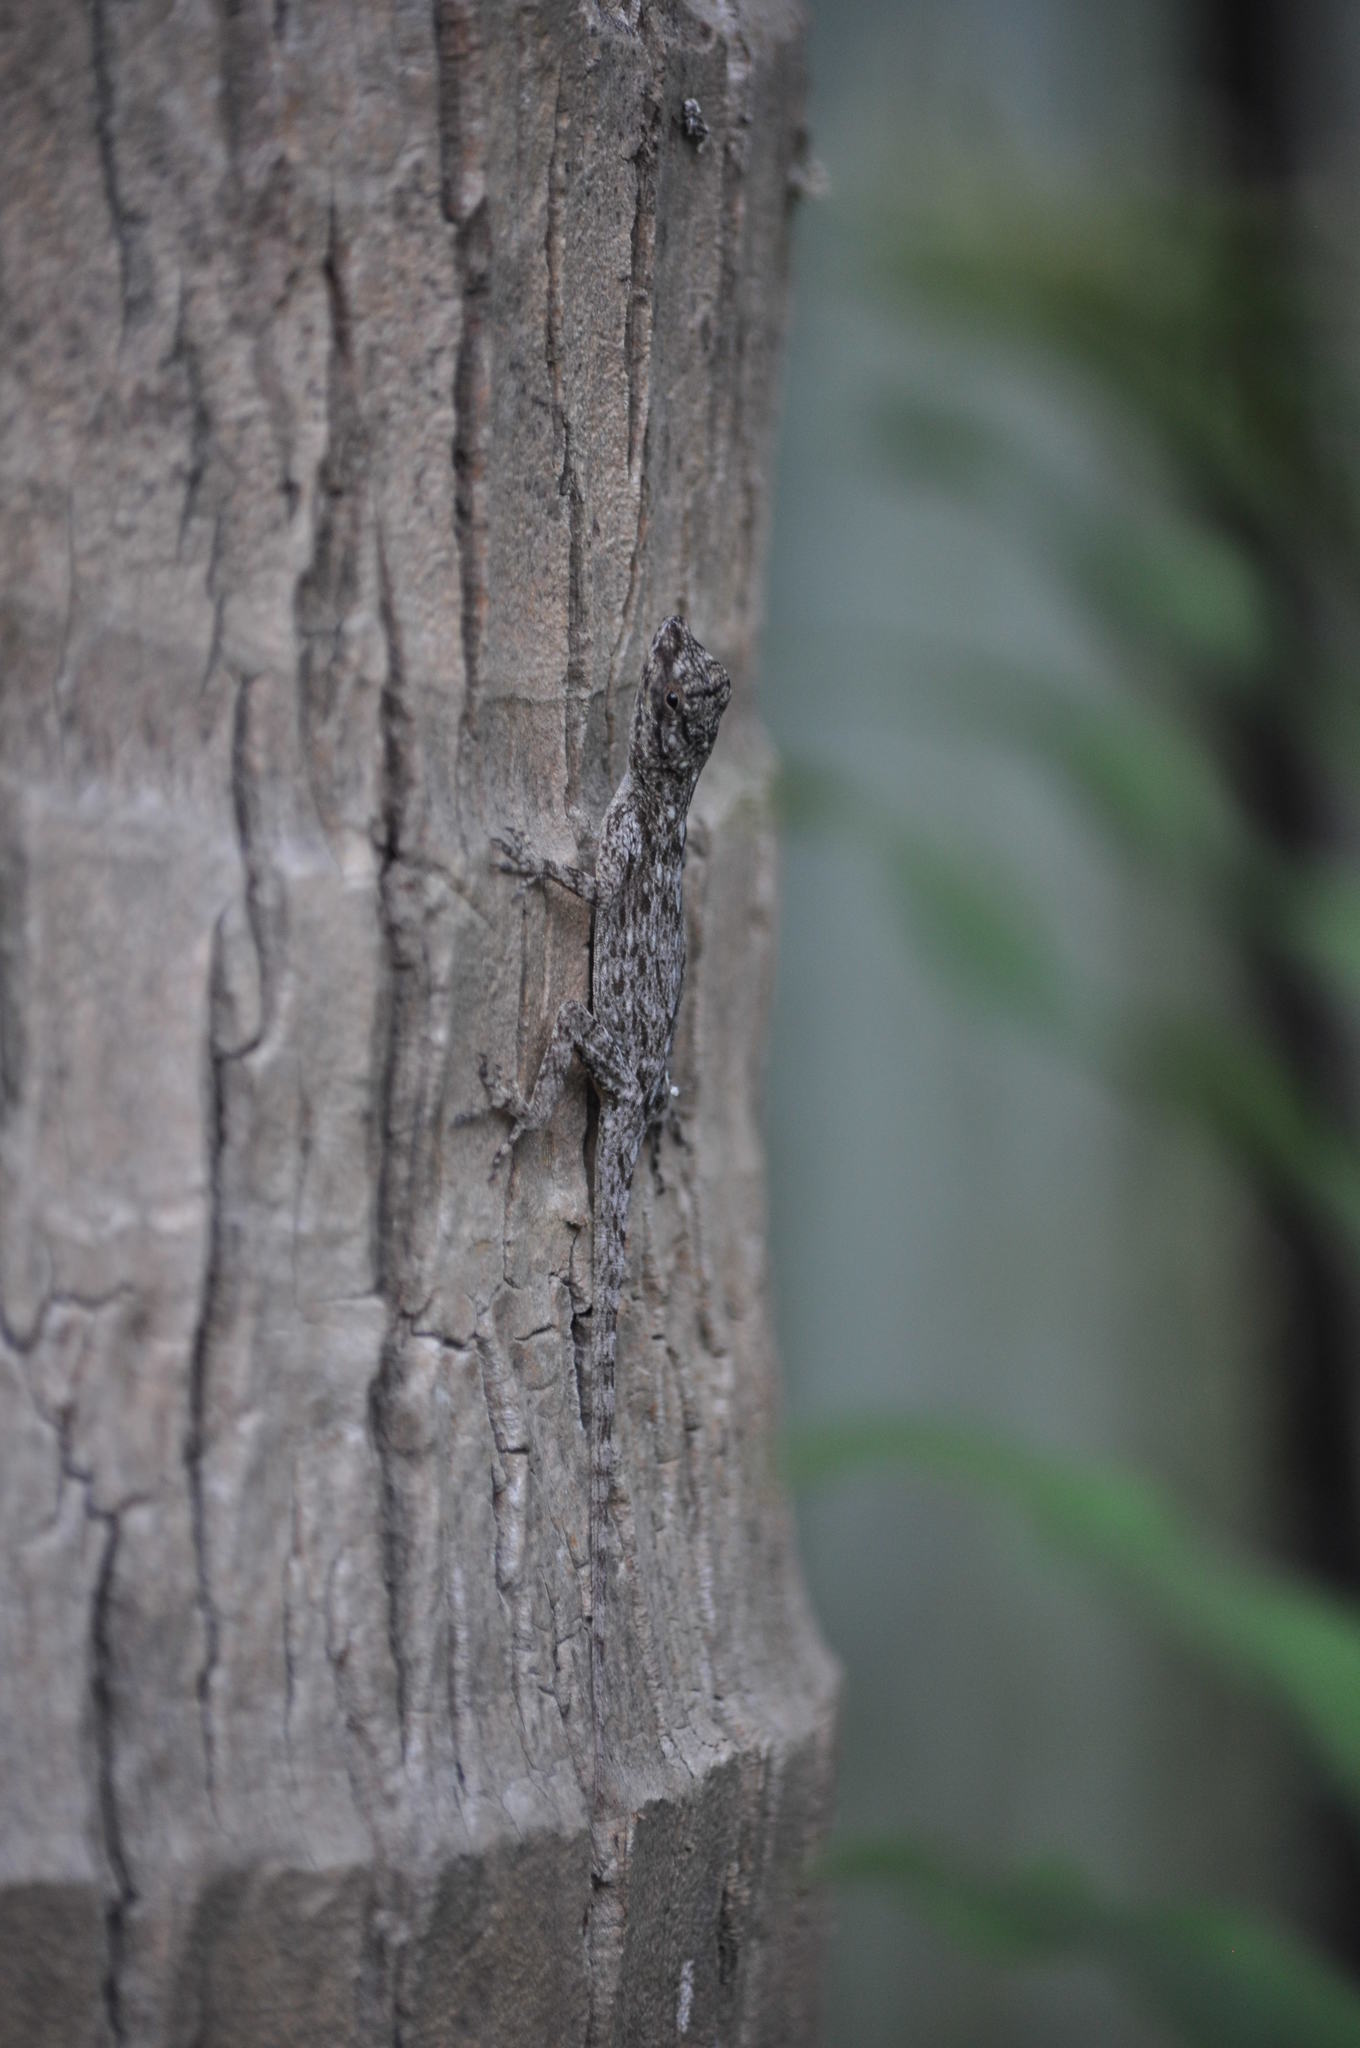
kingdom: Animalia
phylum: Chordata
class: Squamata
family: Dactyloidae
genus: Anolis
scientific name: Anolis distichus
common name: Bark anole
